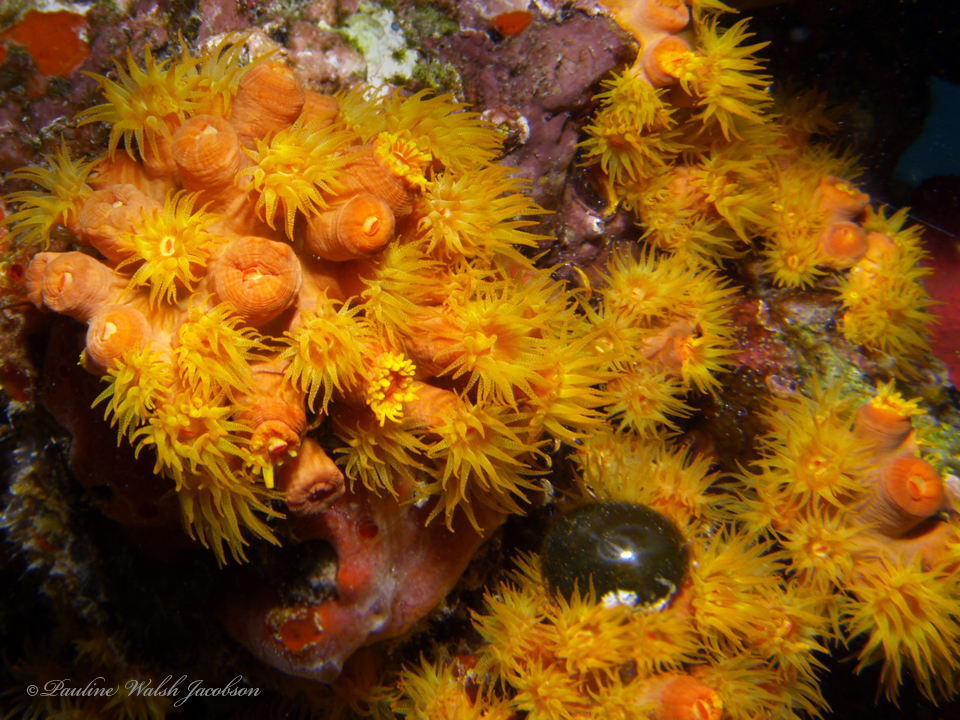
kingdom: Plantae
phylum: Chlorophyta
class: Ulvophyceae
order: Siphonocladales
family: Valoniaceae
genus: Valonia
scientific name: Valonia ventricosa
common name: Sea pearl
